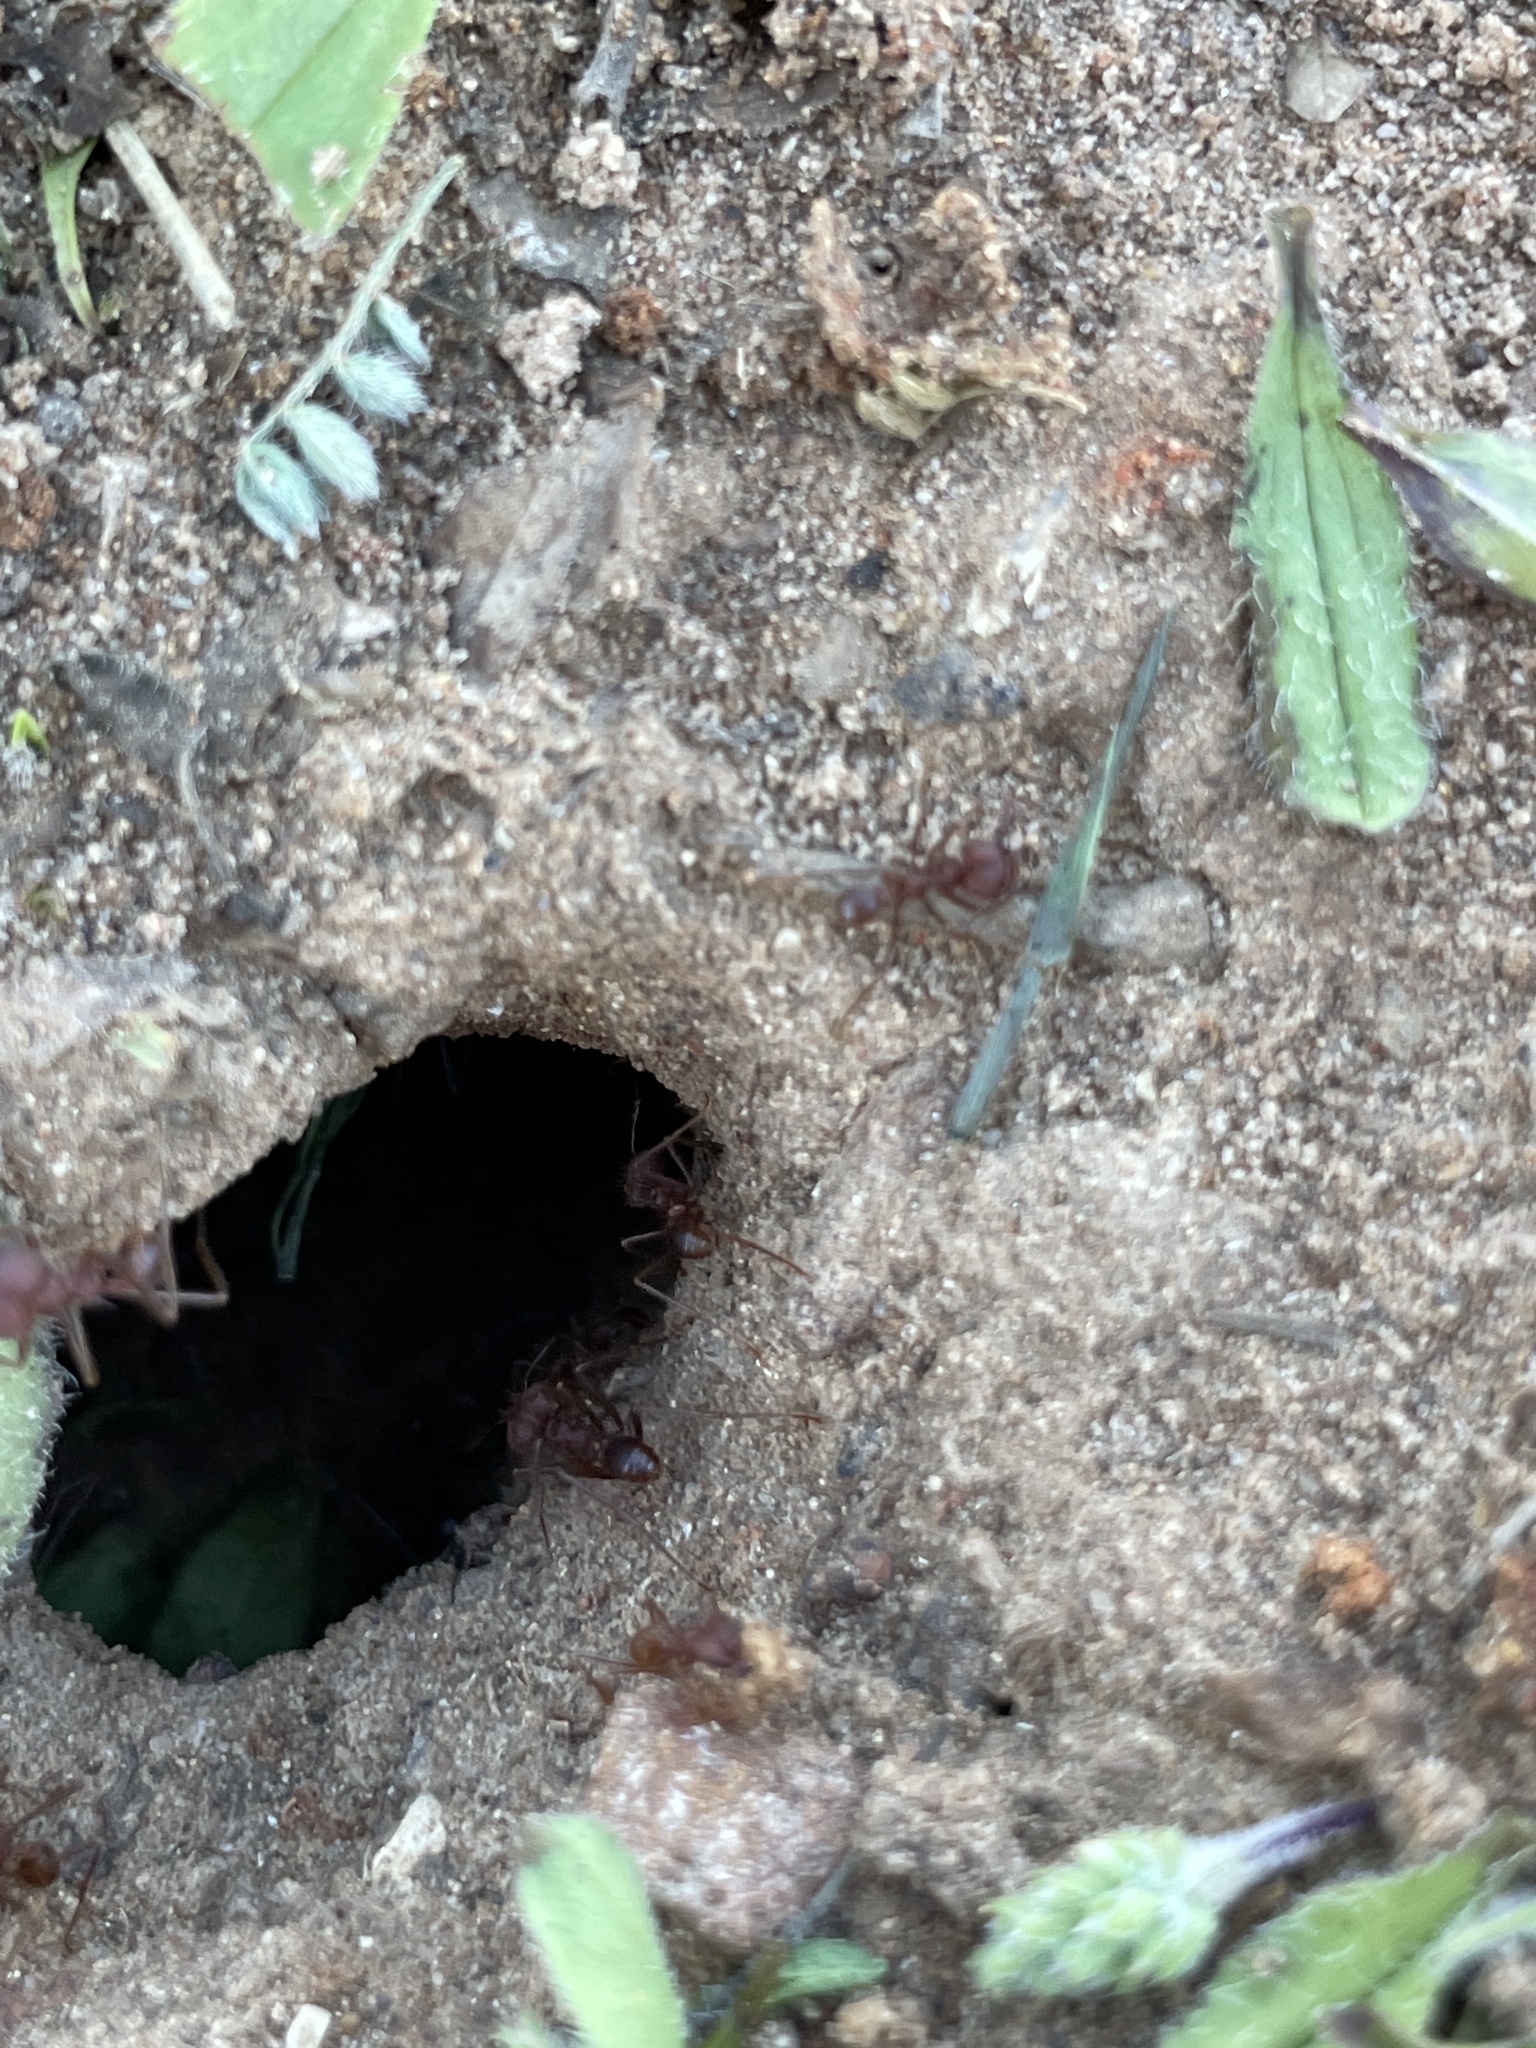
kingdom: Animalia
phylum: Arthropoda
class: Insecta
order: Hymenoptera
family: Formicidae
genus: Atta
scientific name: Atta texana
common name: Texas leafcutting ant
